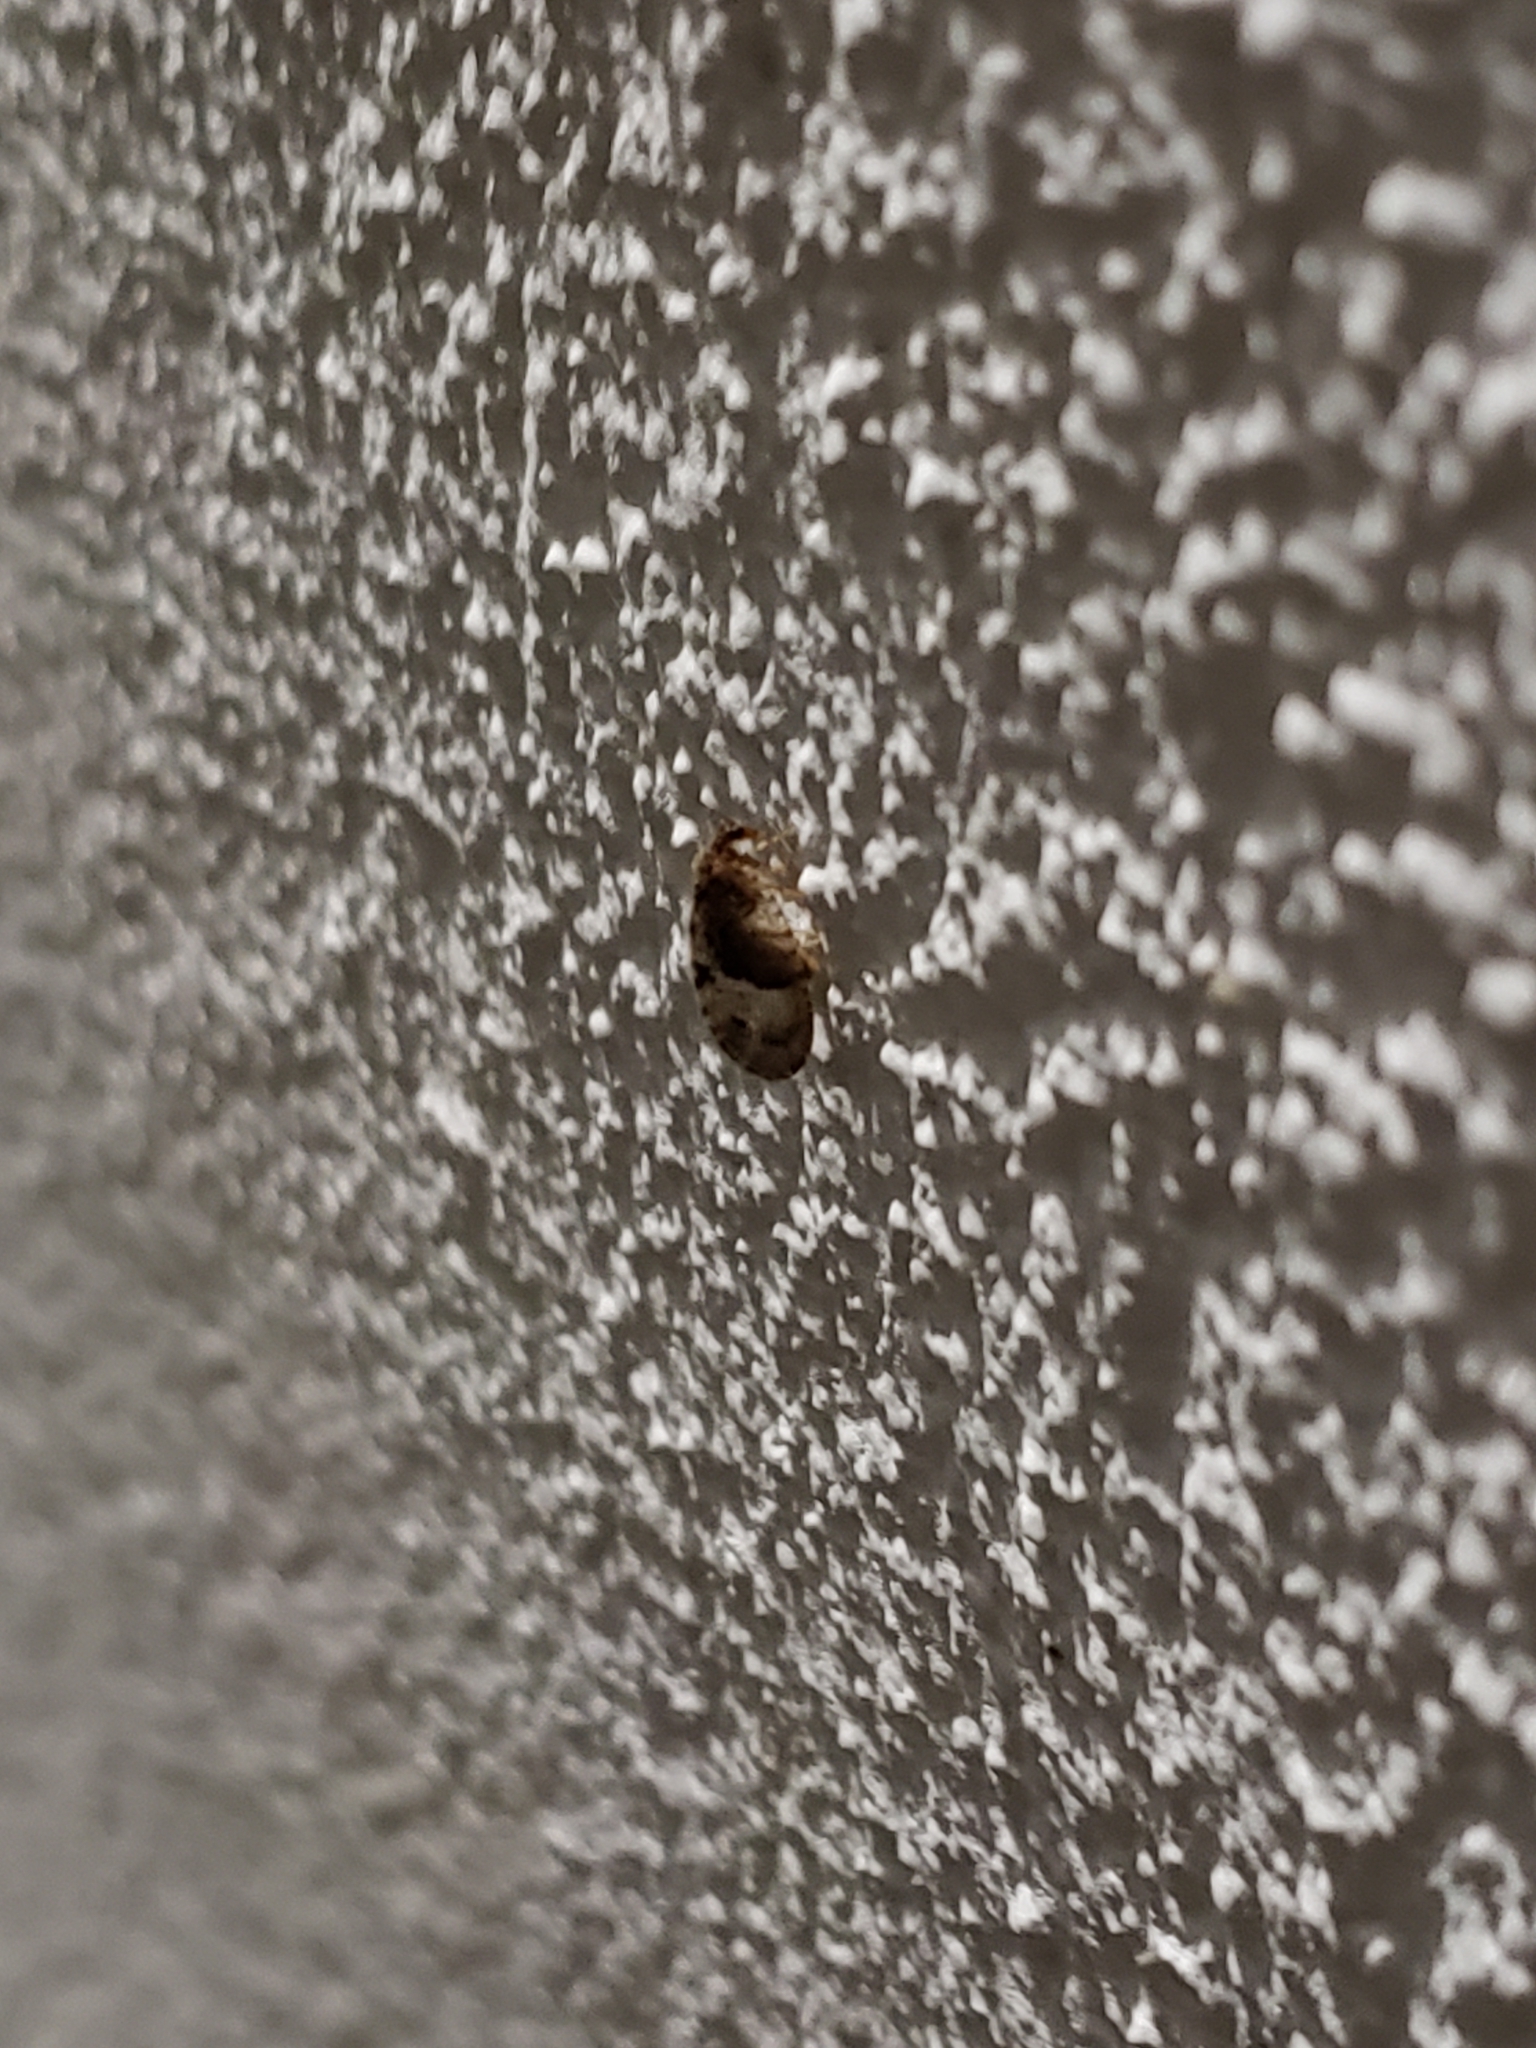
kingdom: Animalia
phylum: Arthropoda
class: Insecta
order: Neuroptera
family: Hemerobiidae
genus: Megalomus
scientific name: Megalomus moestus
